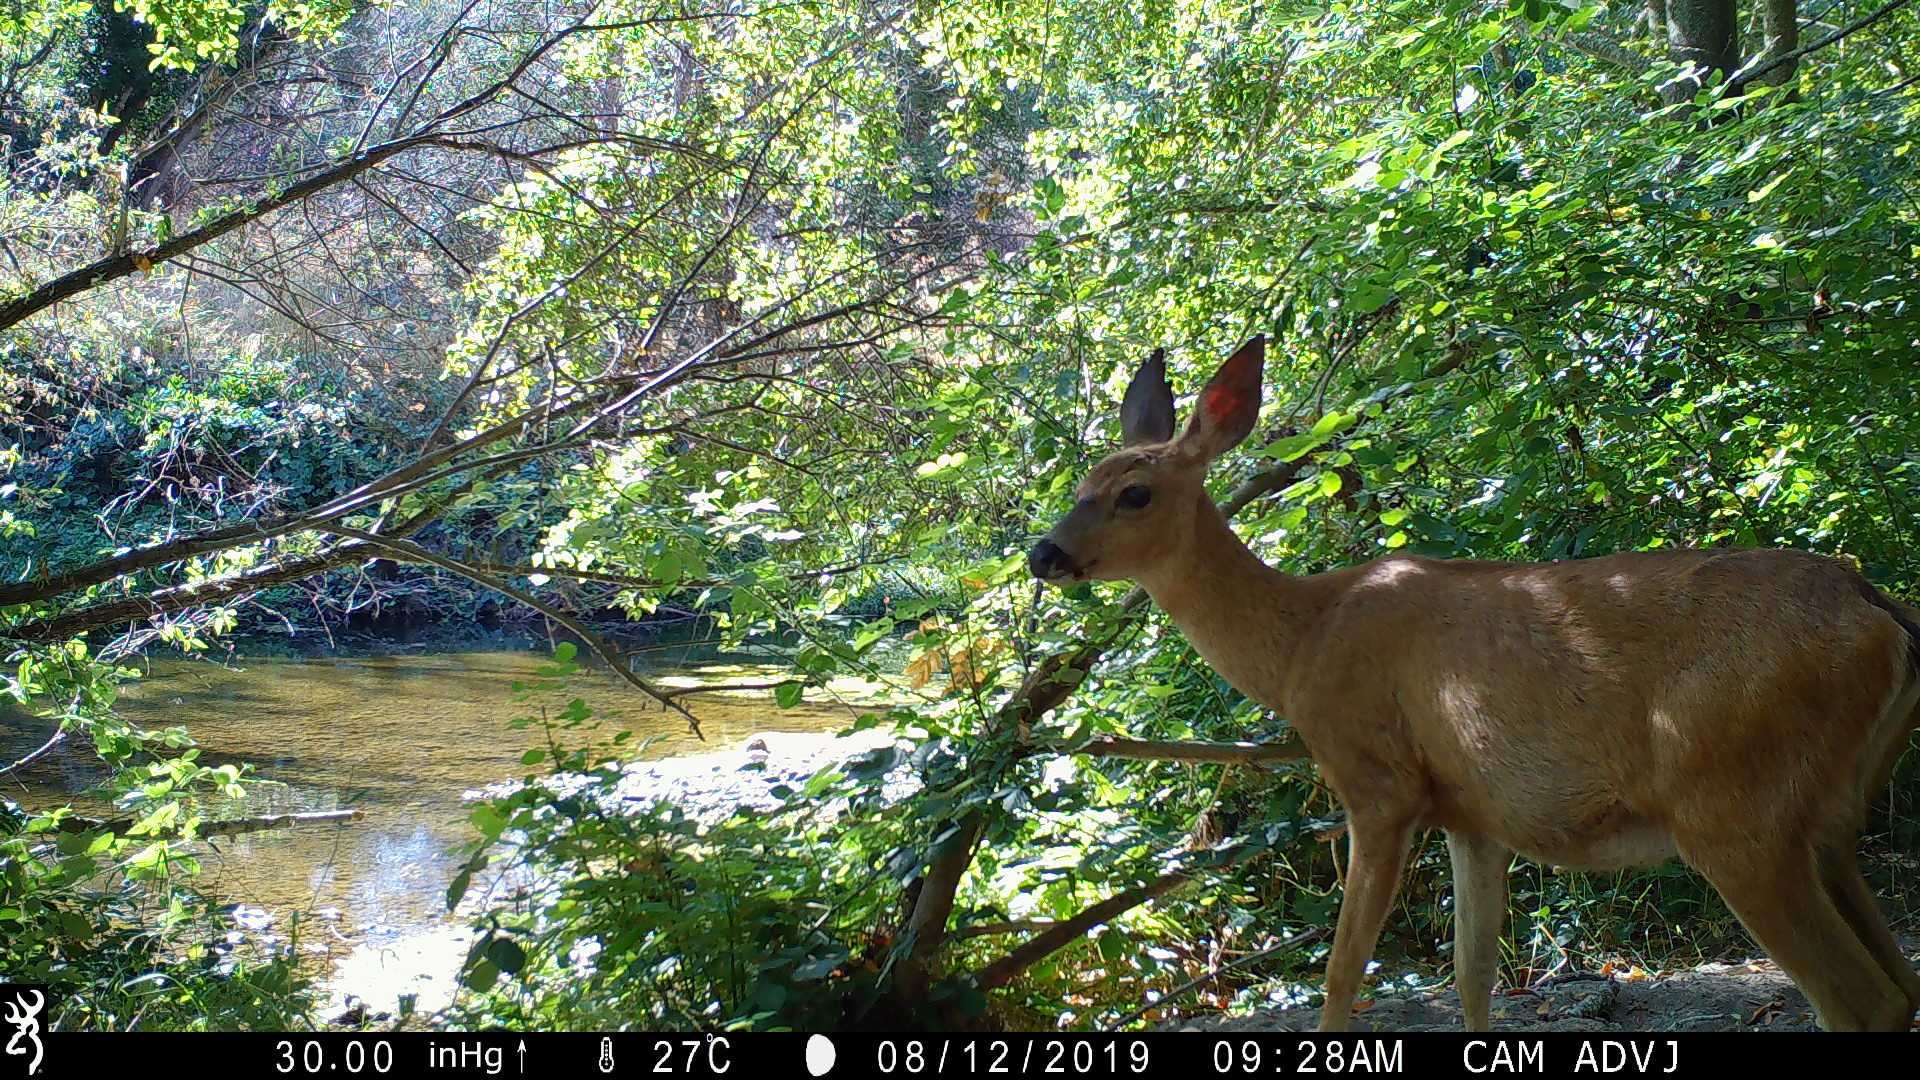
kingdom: Animalia
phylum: Chordata
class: Mammalia
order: Artiodactyla
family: Cervidae
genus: Odocoileus
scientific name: Odocoileus hemionus
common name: Mule deer
